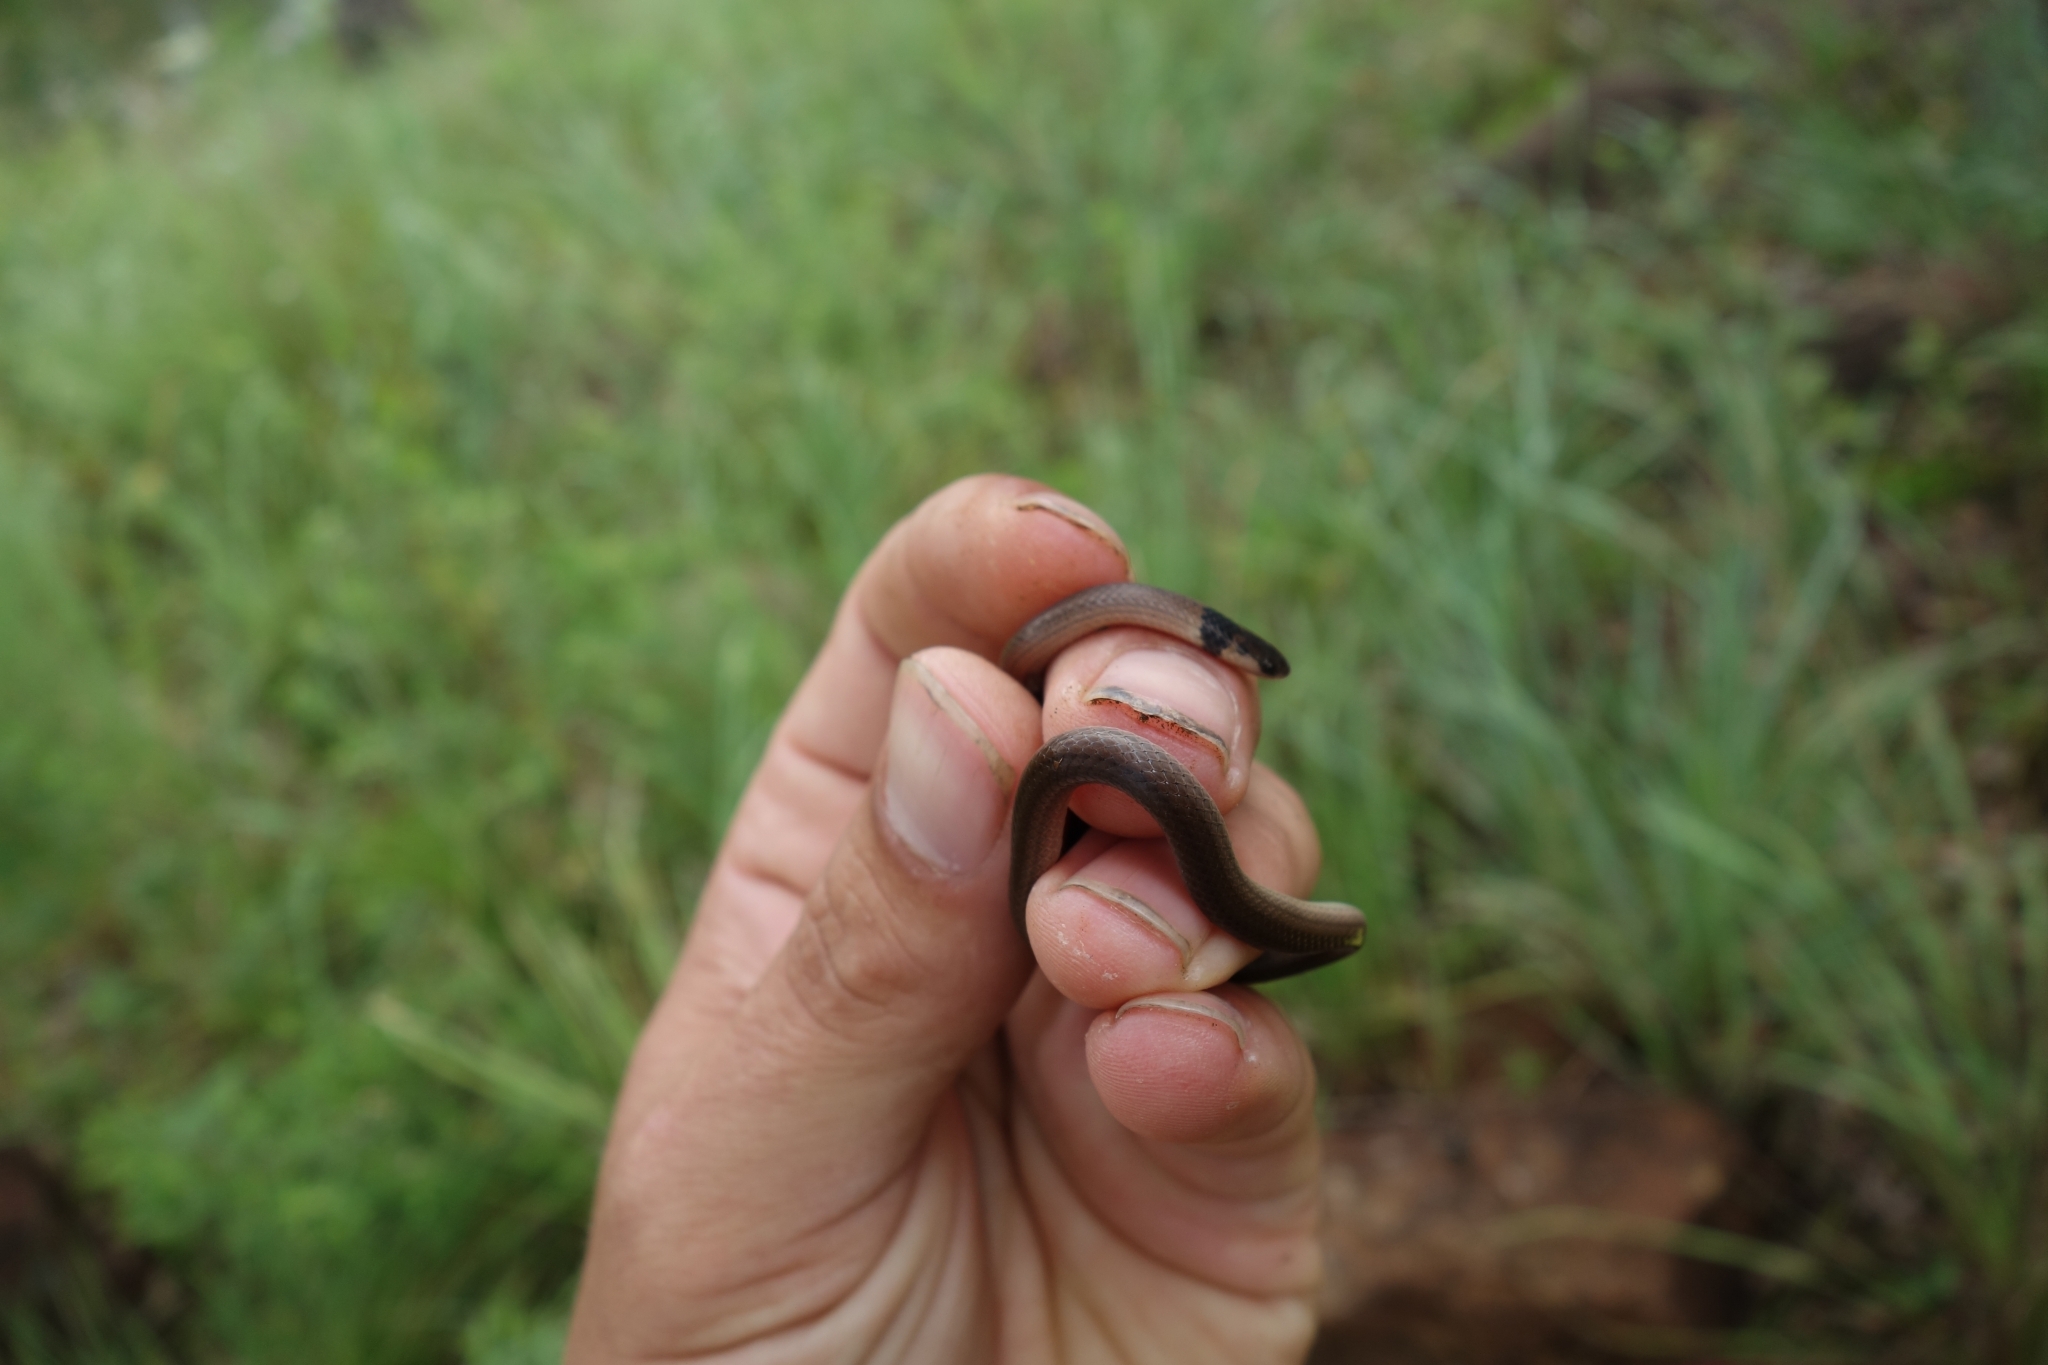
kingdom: Animalia
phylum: Chordata
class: Squamata
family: Atractaspididae
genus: Aparallactus
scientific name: Aparallactus capensis
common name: Cape centipede eater
